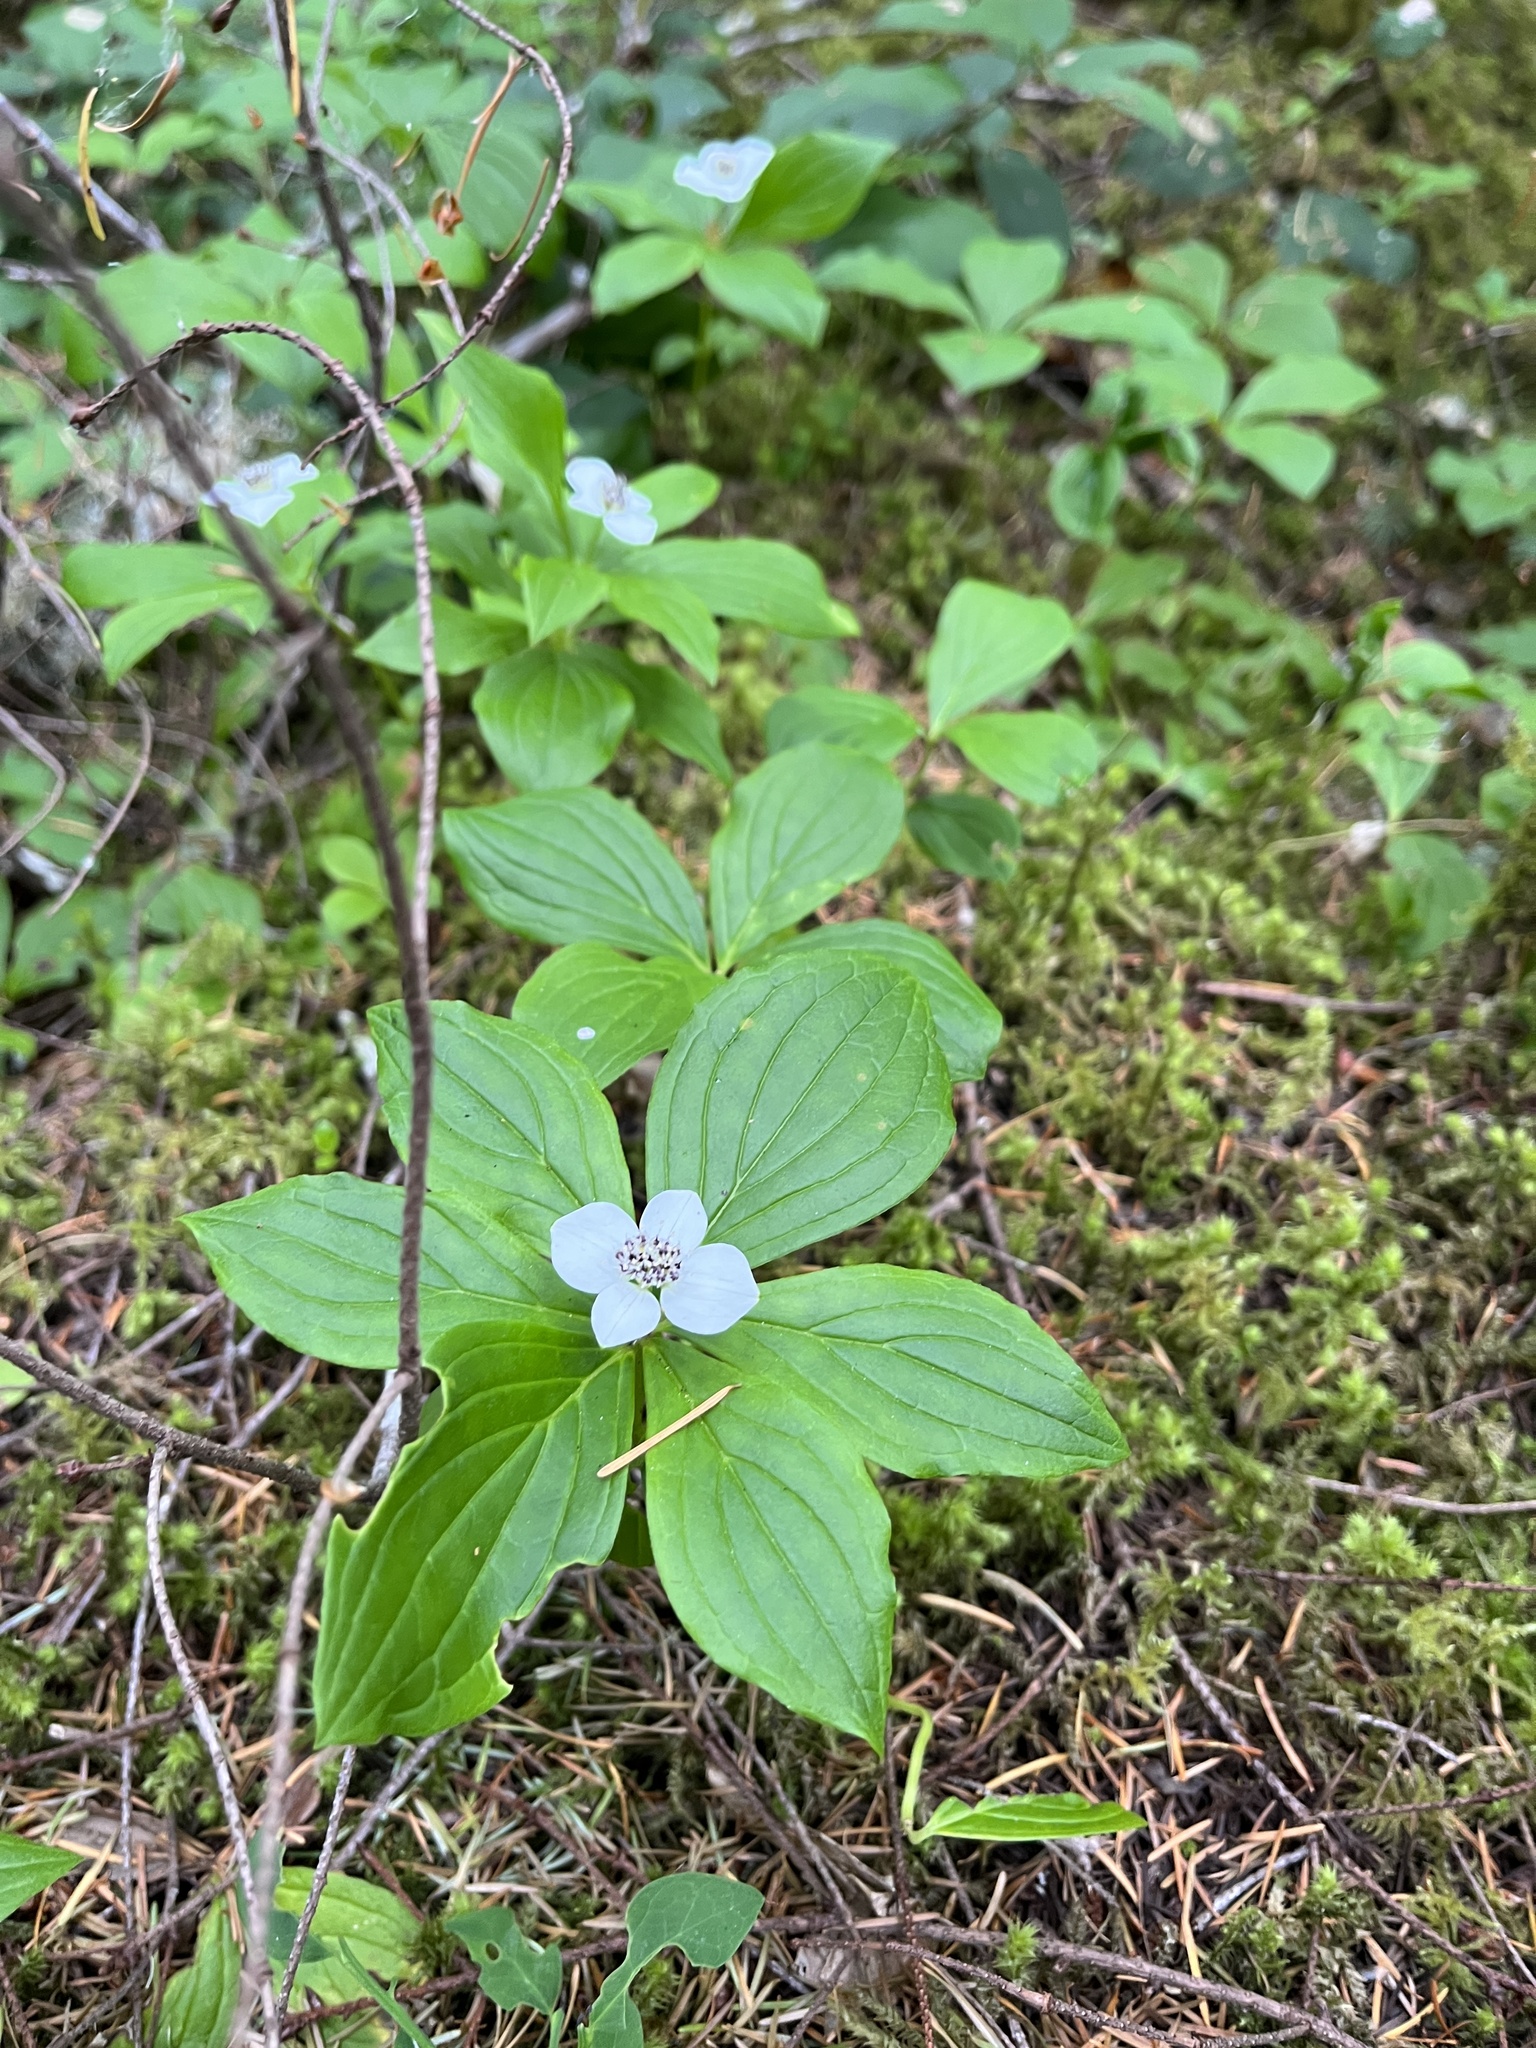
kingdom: Plantae
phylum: Tracheophyta
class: Magnoliopsida
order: Cornales
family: Cornaceae
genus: Cornus
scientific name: Cornus unalaschkensis
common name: Alaska bunchberry
